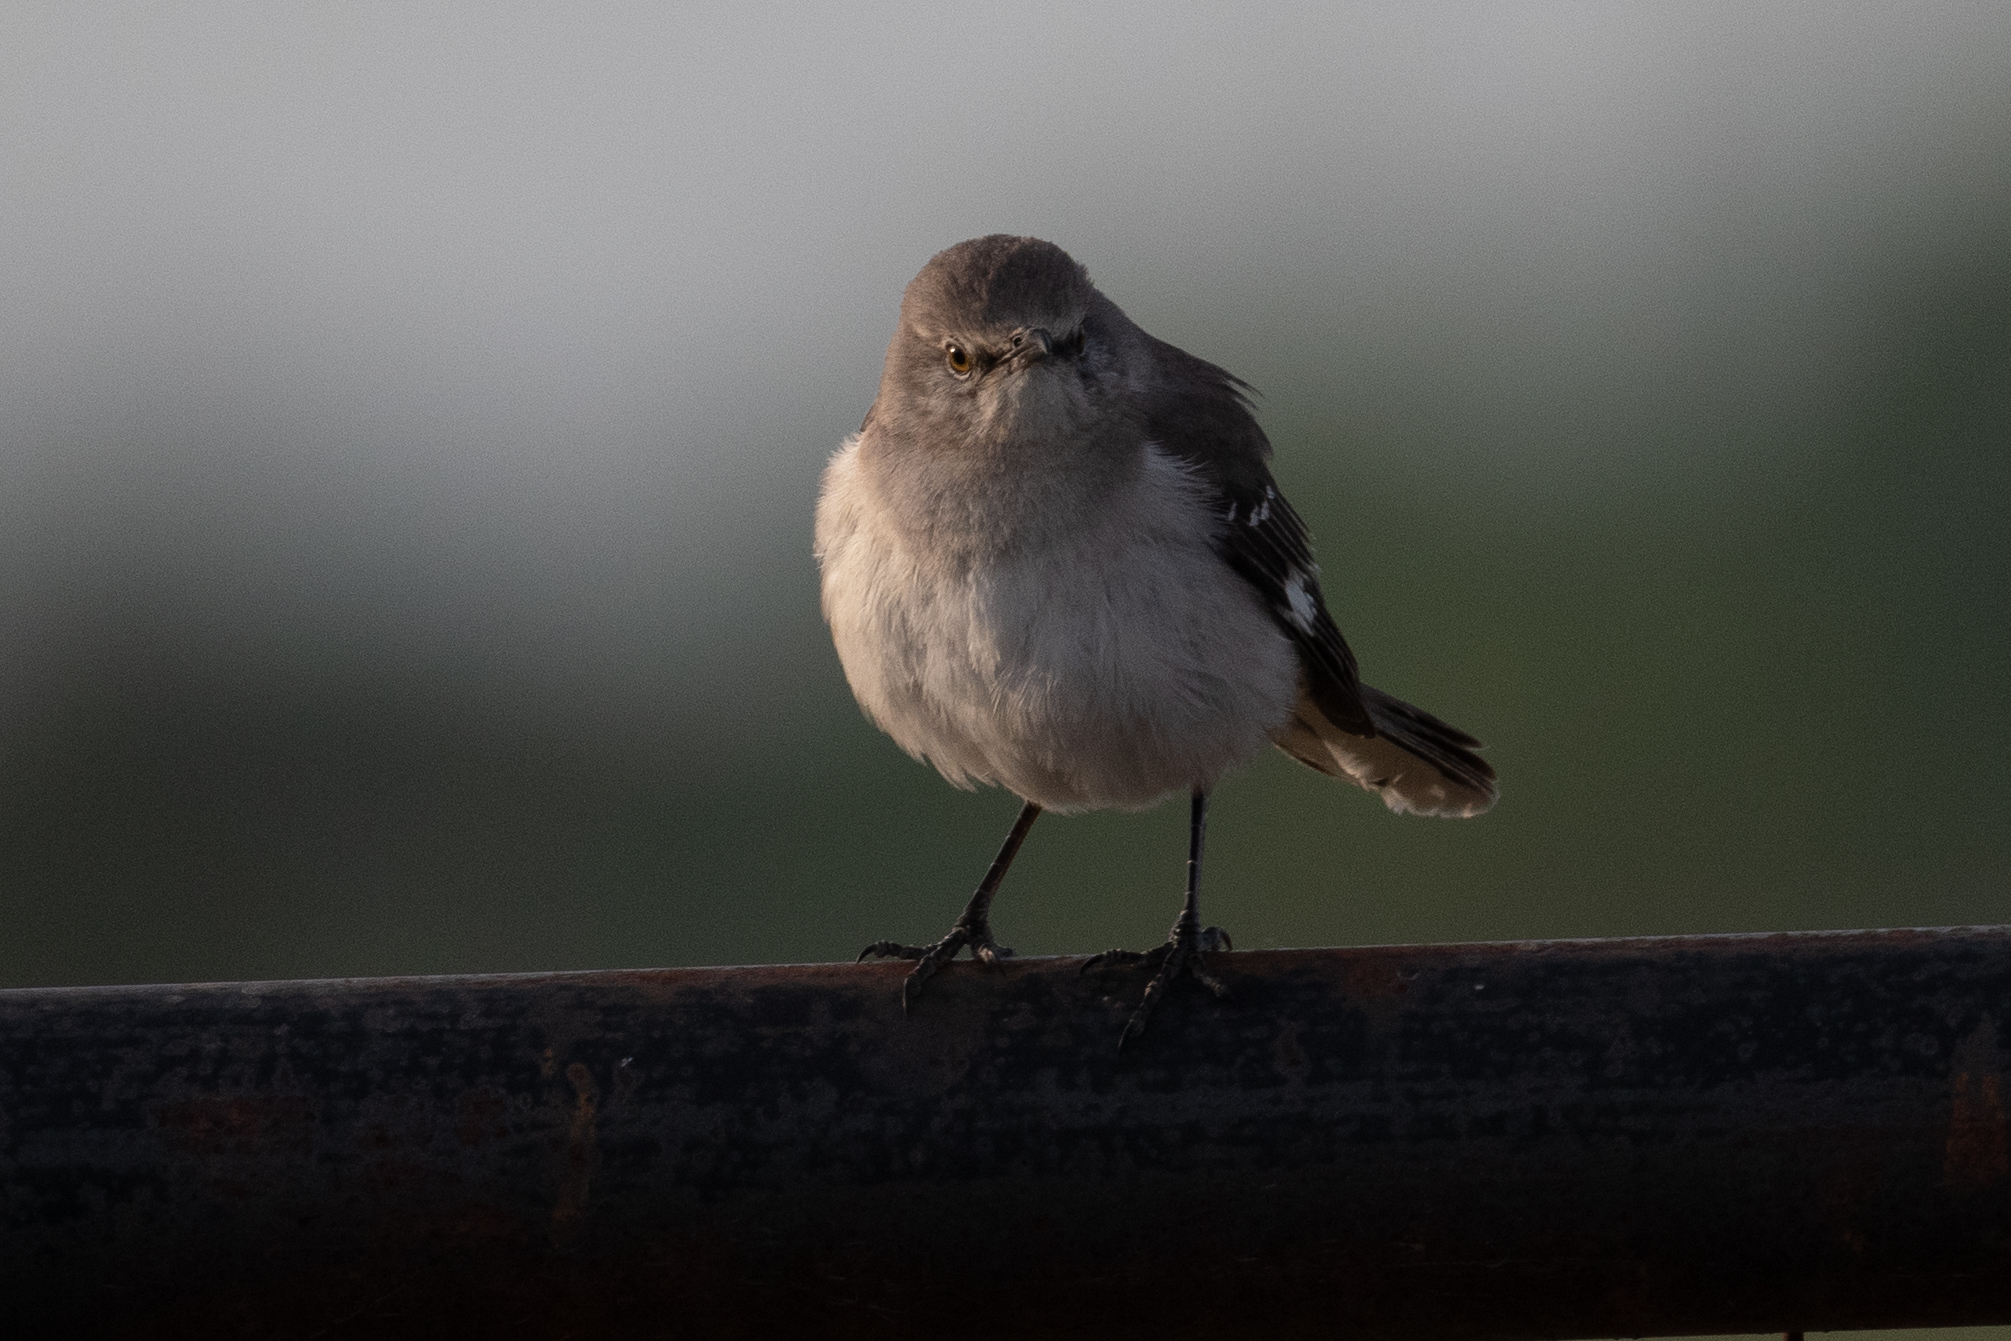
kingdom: Animalia
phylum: Chordata
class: Aves
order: Passeriformes
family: Mimidae
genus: Mimus
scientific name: Mimus polyglottos
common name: Northern mockingbird
